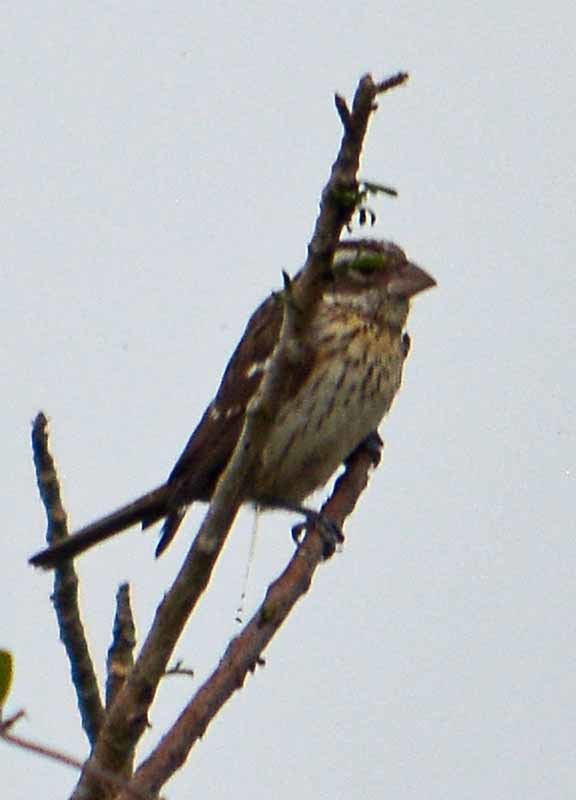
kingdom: Animalia
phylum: Chordata
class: Aves
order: Passeriformes
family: Cardinalidae
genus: Pheucticus
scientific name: Pheucticus ludovicianus
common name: Rose-breasted grosbeak
